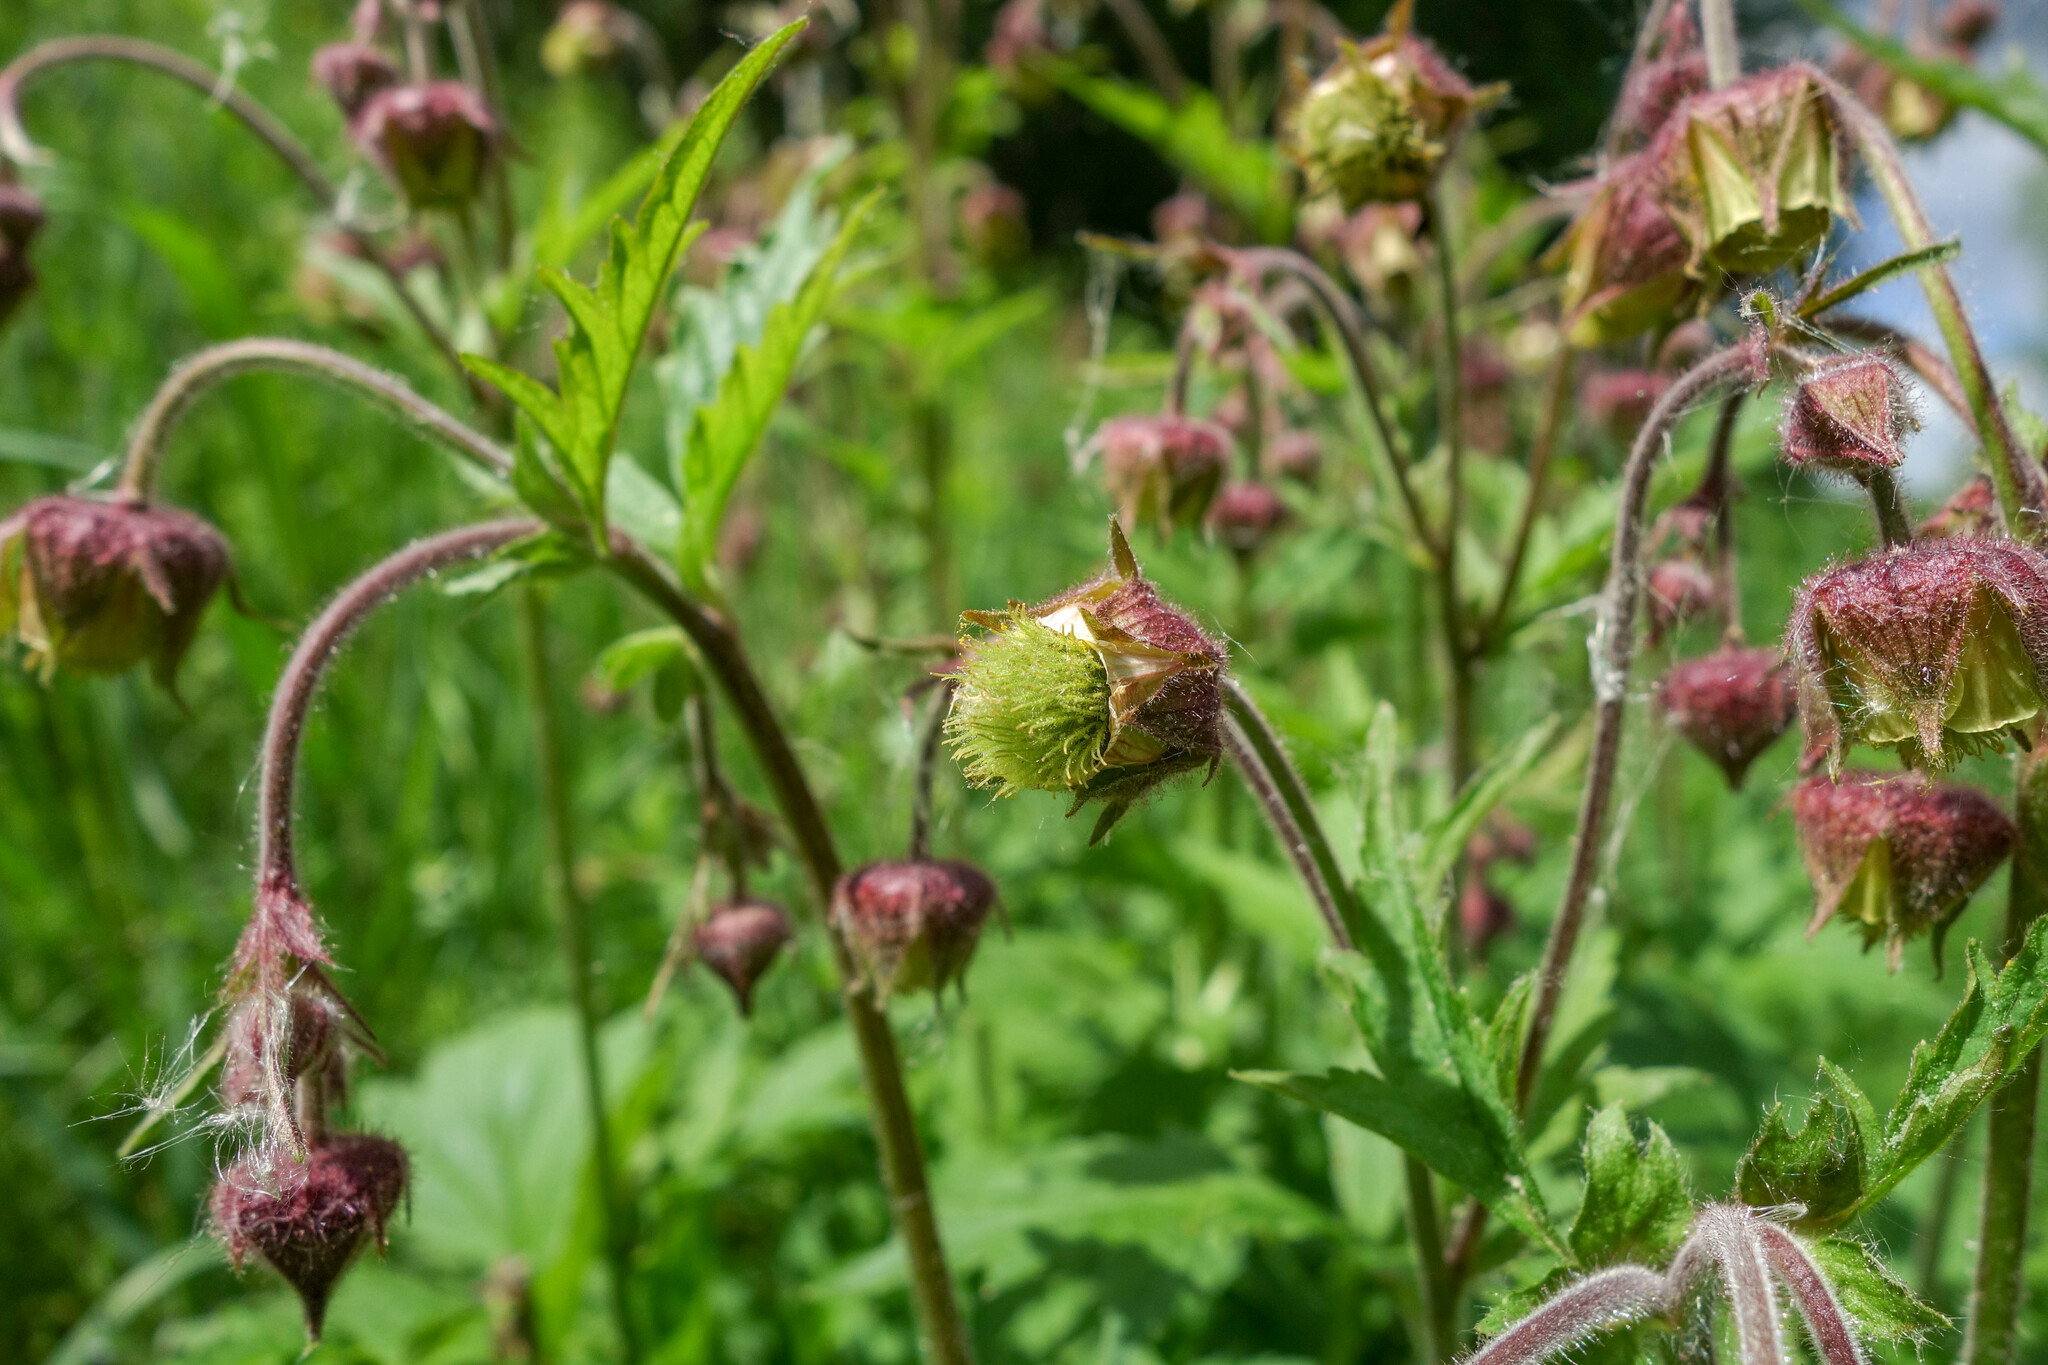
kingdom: Plantae
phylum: Tracheophyta
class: Magnoliopsida
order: Rosales
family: Rosaceae
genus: Geum
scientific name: Geum rivale
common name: Water avens
